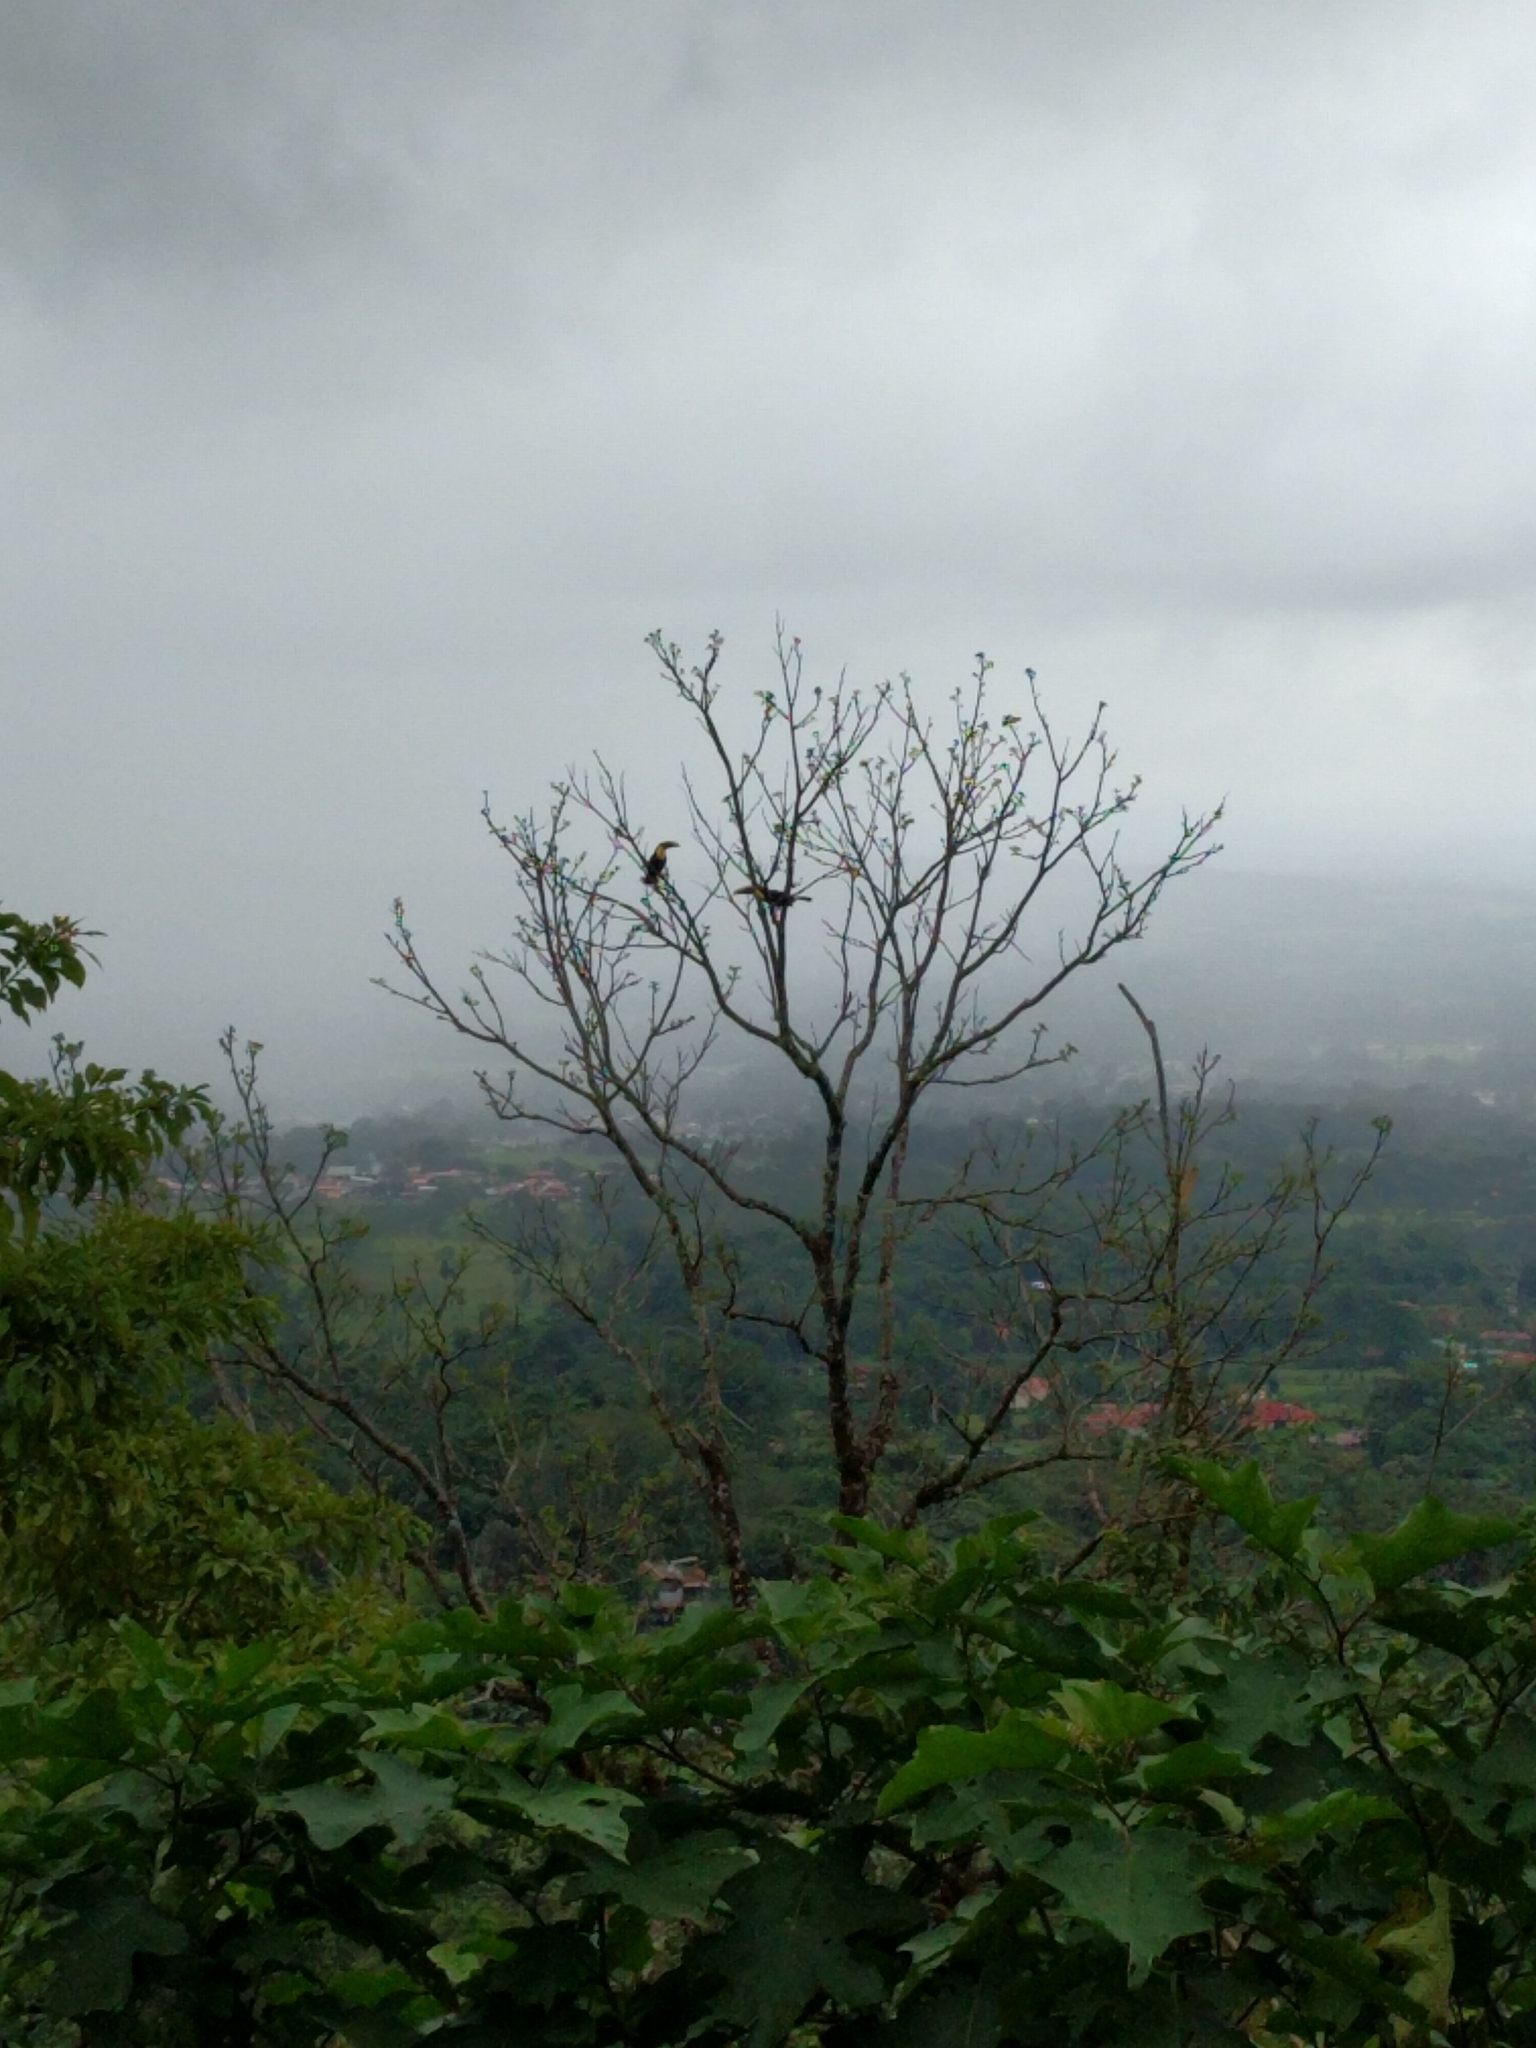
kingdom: Animalia
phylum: Chordata
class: Aves
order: Piciformes
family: Ramphastidae
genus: Ramphastos
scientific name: Ramphastos ambiguus
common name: Yellow-throated toucan
